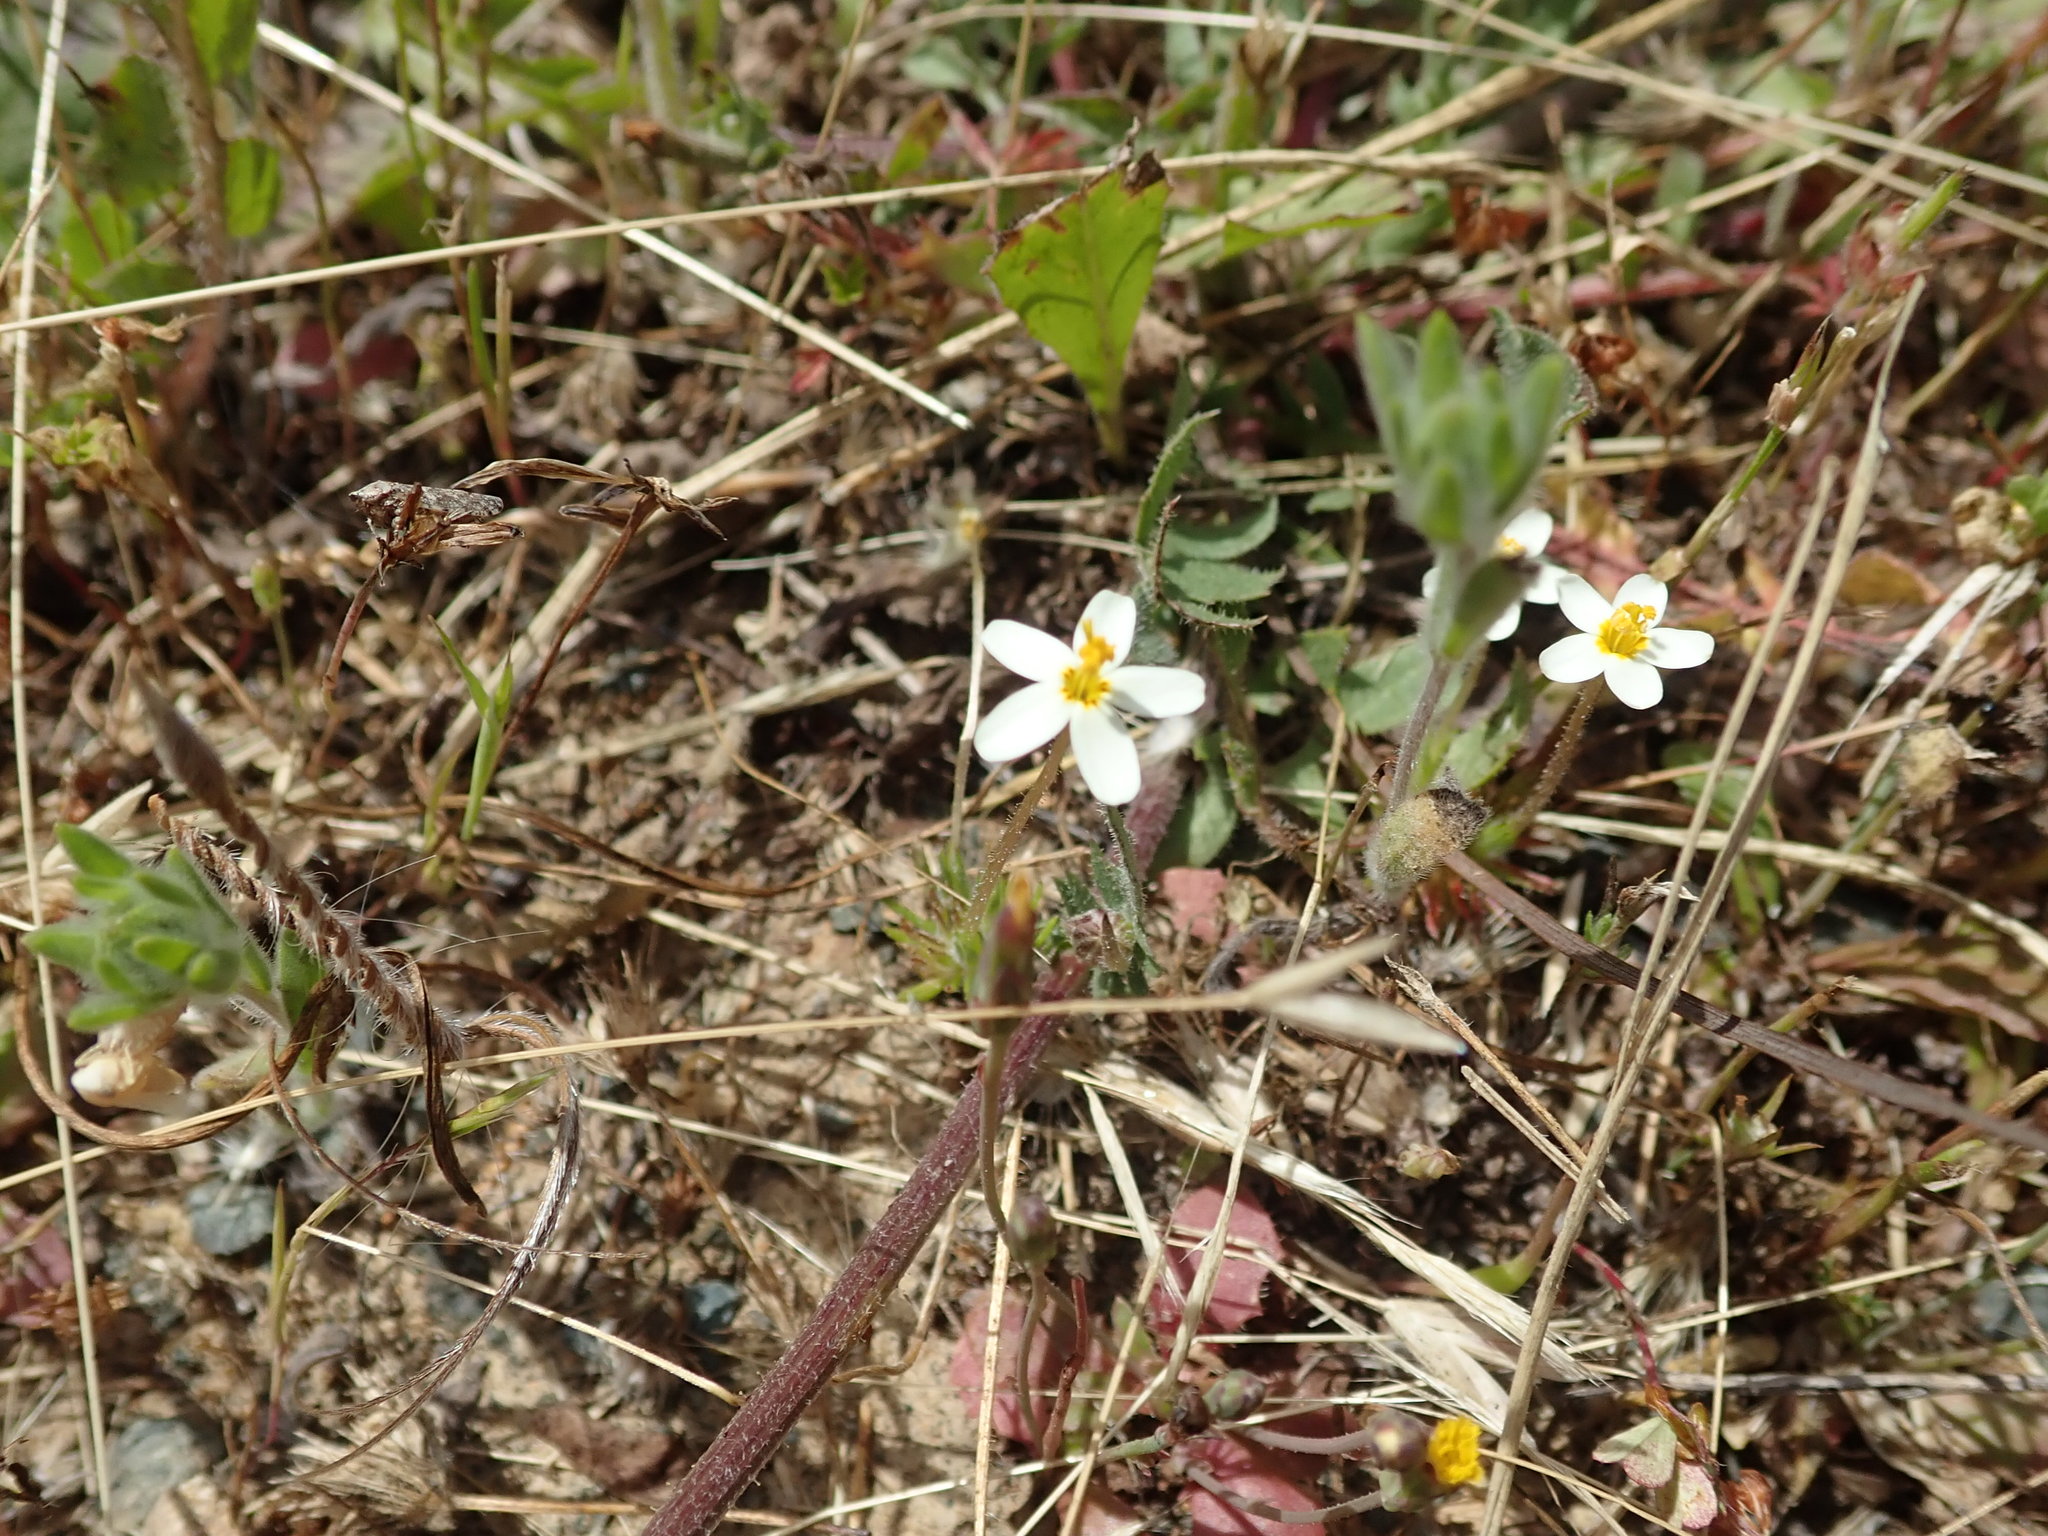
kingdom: Plantae
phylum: Tracheophyta
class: Magnoliopsida
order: Ericales
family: Polemoniaceae
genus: Leptosiphon
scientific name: Leptosiphon parviflorus
